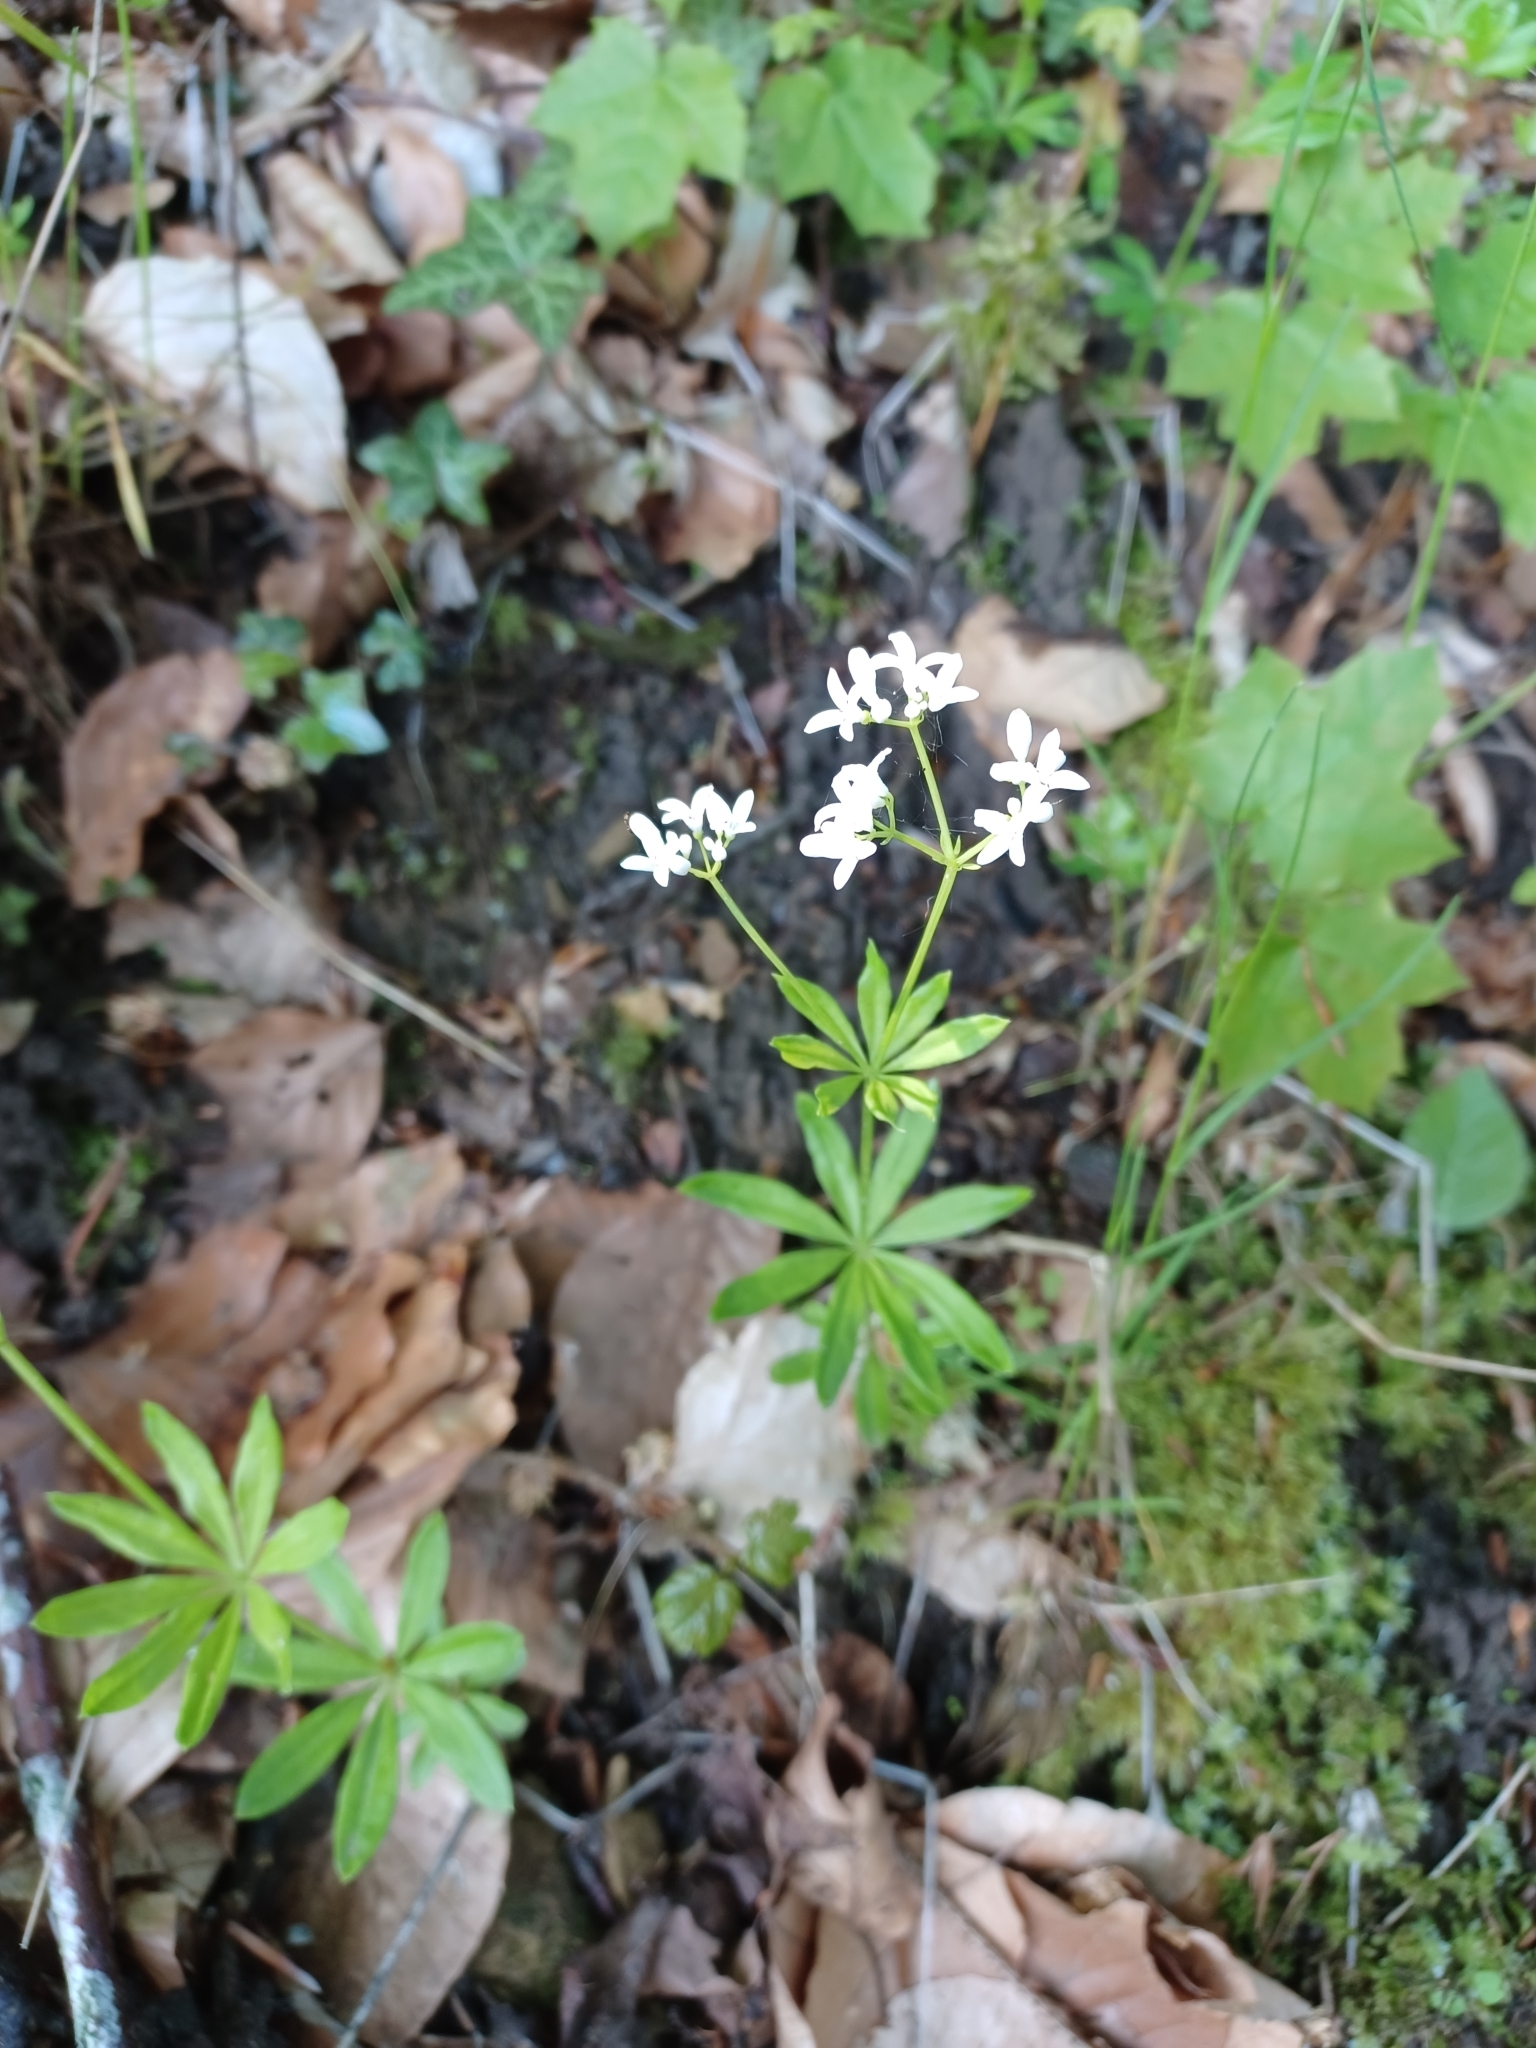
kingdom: Plantae
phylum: Tracheophyta
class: Magnoliopsida
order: Gentianales
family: Rubiaceae
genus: Galium
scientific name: Galium odoratum
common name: Sweet woodruff
